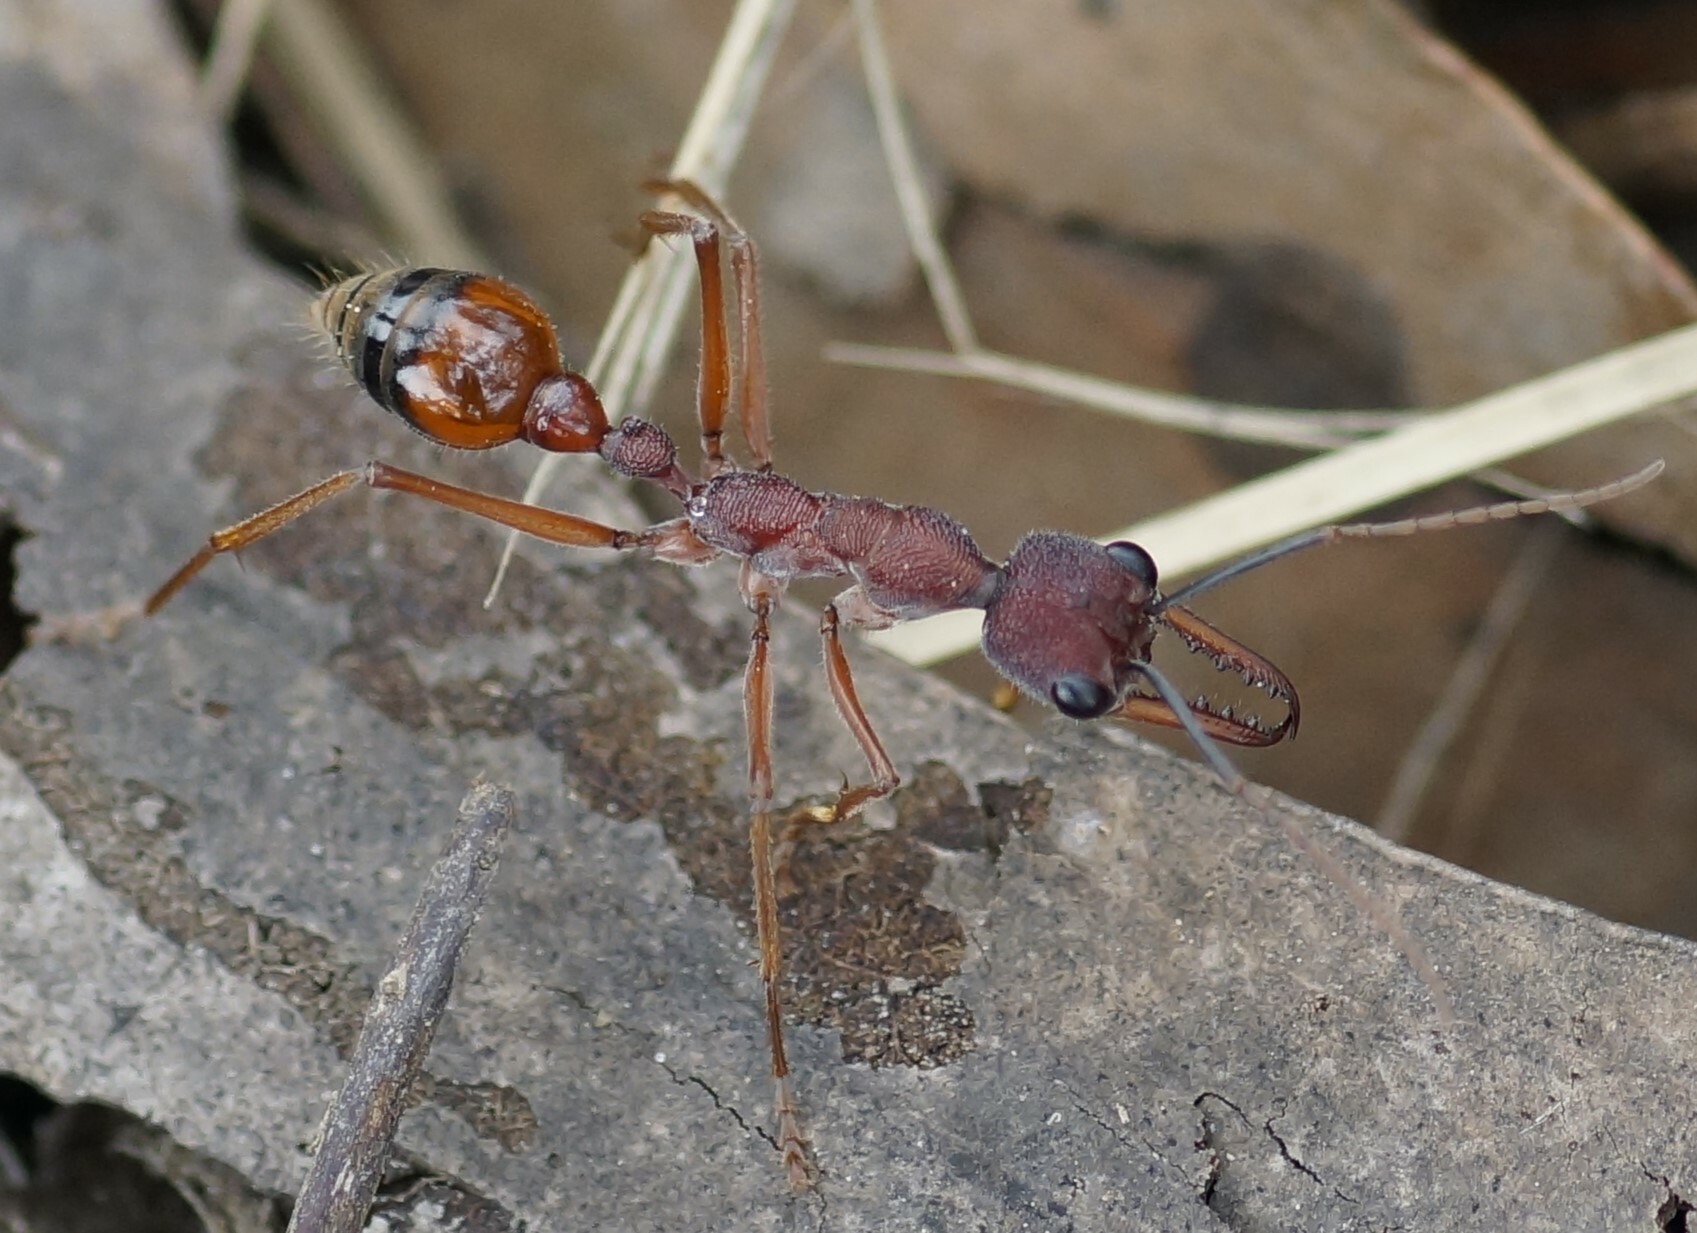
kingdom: Animalia
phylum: Arthropoda
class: Insecta
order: Hymenoptera
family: Formicidae
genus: Myrmecia
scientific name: Myrmecia nigriscapa
